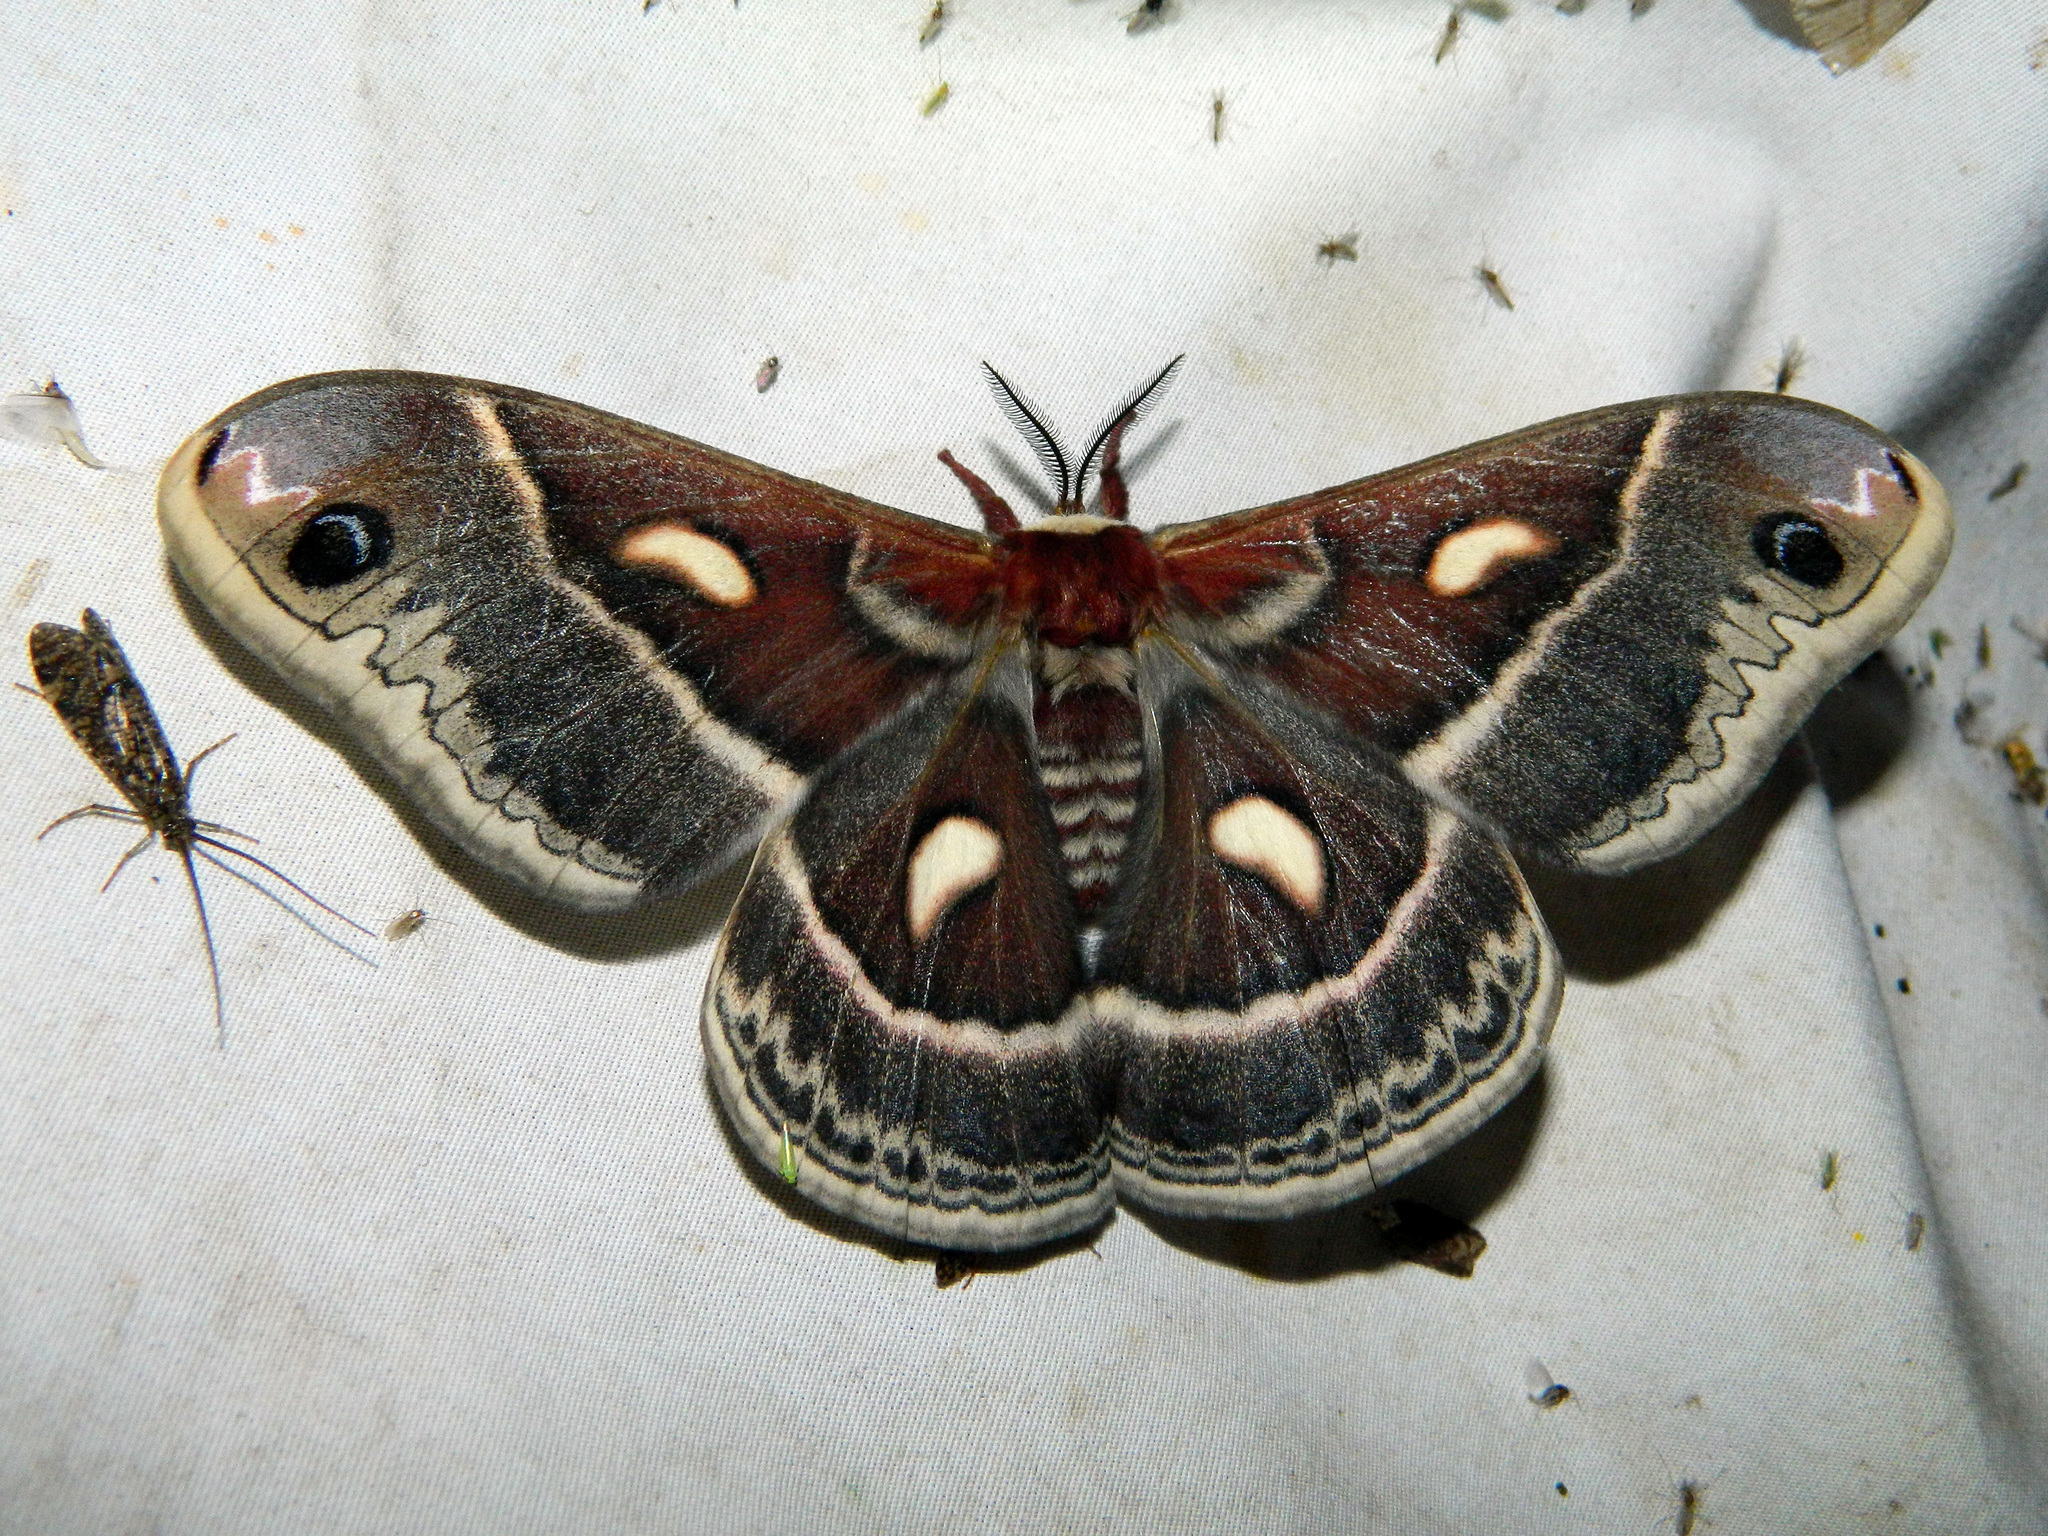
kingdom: Animalia
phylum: Arthropoda
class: Insecta
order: Lepidoptera
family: Saturniidae
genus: Hyalophora
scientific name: Hyalophora columbia
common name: Columbia silkmoth
